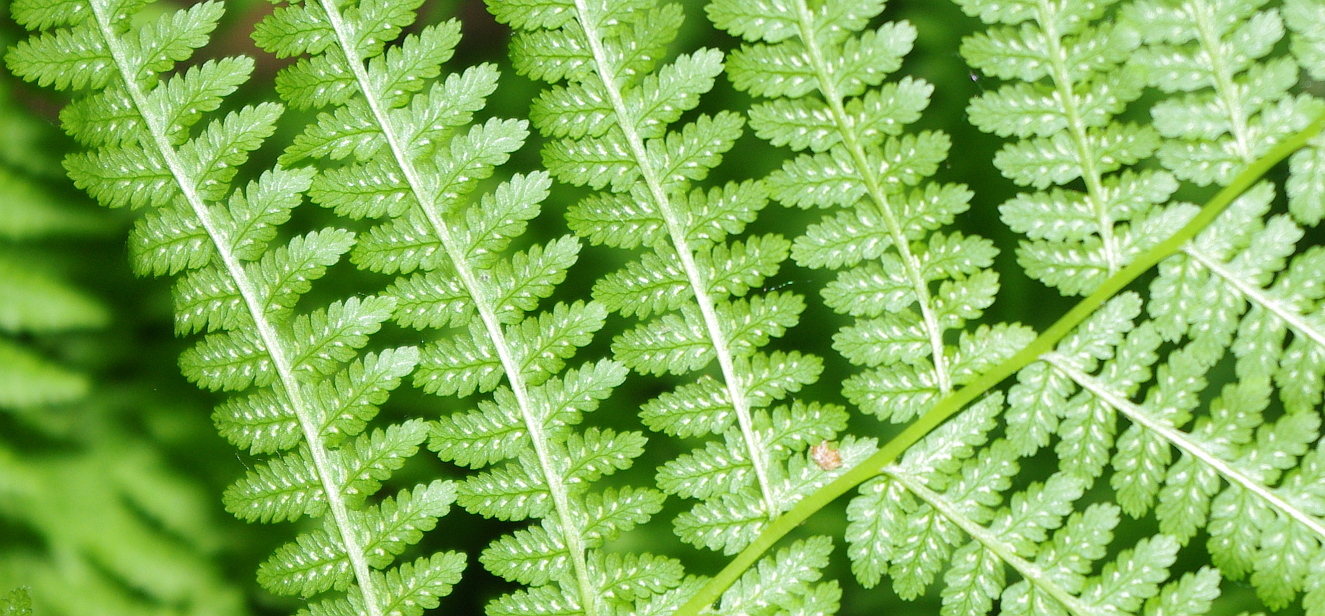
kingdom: Plantae
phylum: Tracheophyta
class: Polypodiopsida
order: Polypodiales
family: Athyriaceae
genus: Athyrium
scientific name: Athyrium filix-femina
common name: Lady fern
